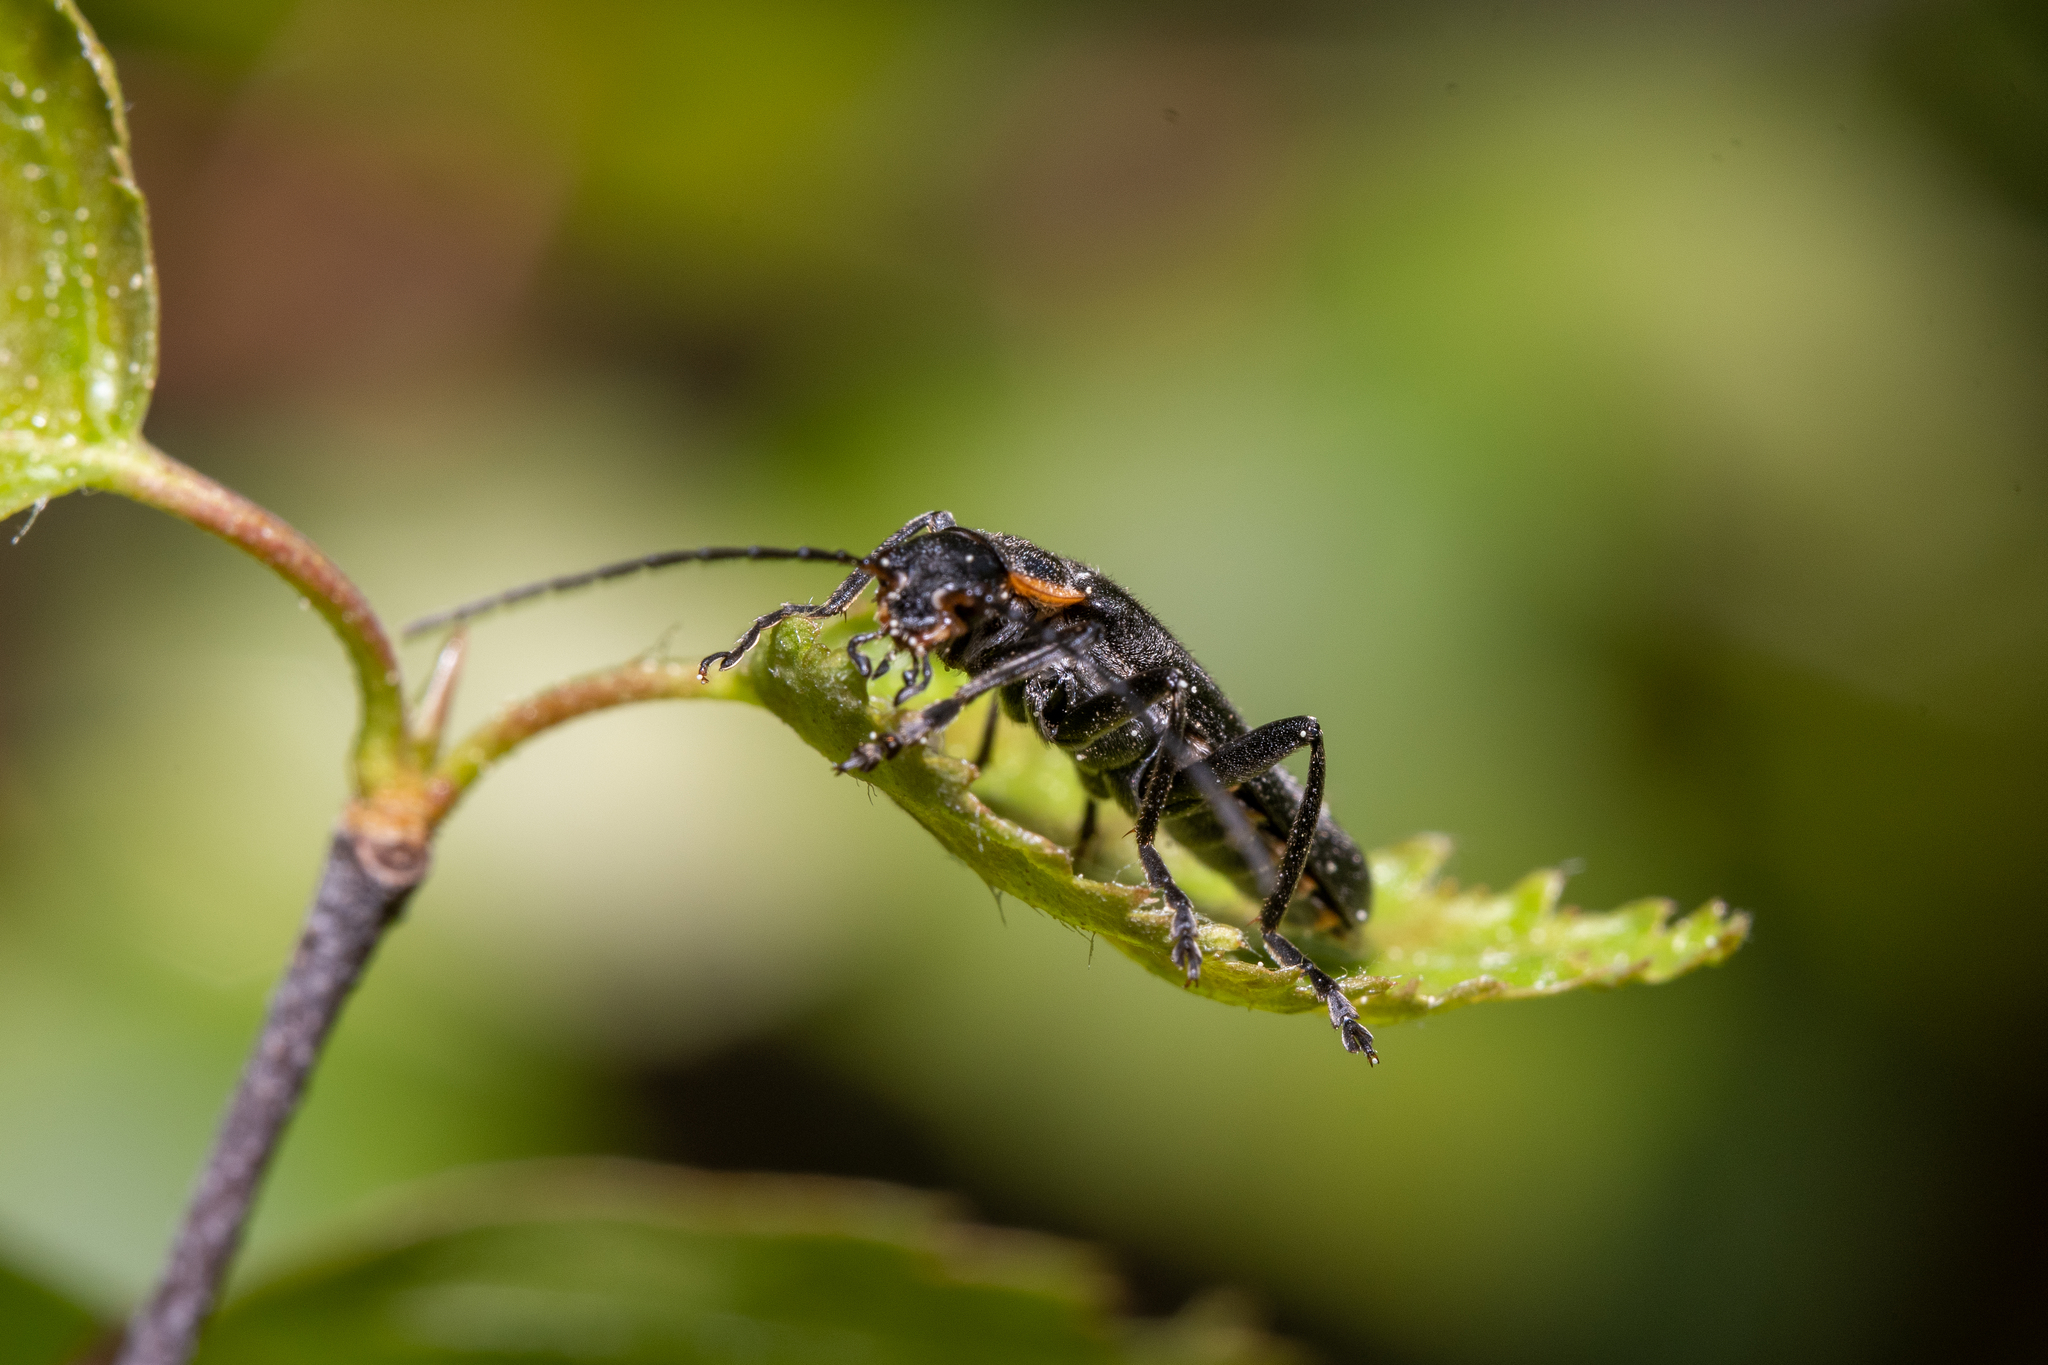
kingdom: Animalia
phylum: Arthropoda
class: Insecta
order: Coleoptera
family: Cantharidae
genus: Cantharis
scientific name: Cantharis obscura
